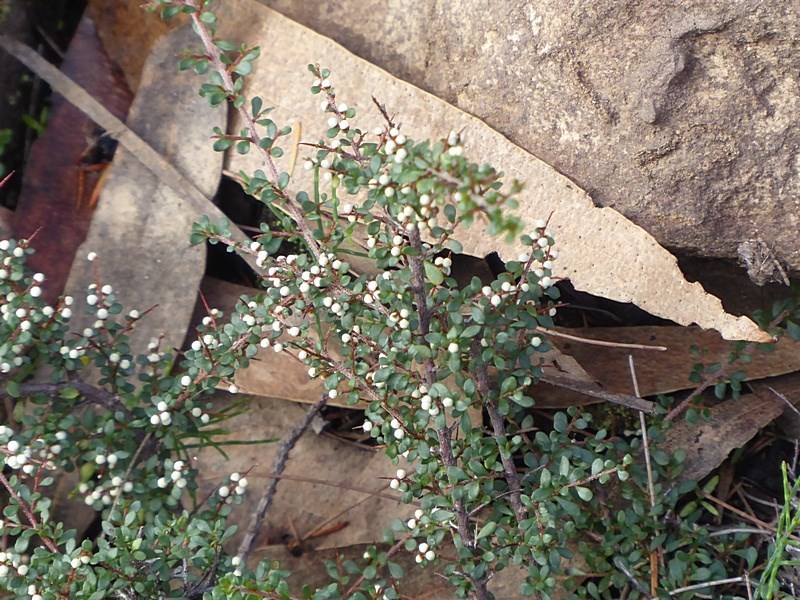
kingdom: Plantae
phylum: Tracheophyta
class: Magnoliopsida
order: Rosales
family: Rhamnaceae
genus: Cryptandra
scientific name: Cryptandra amara
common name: Bitter cryptandra
